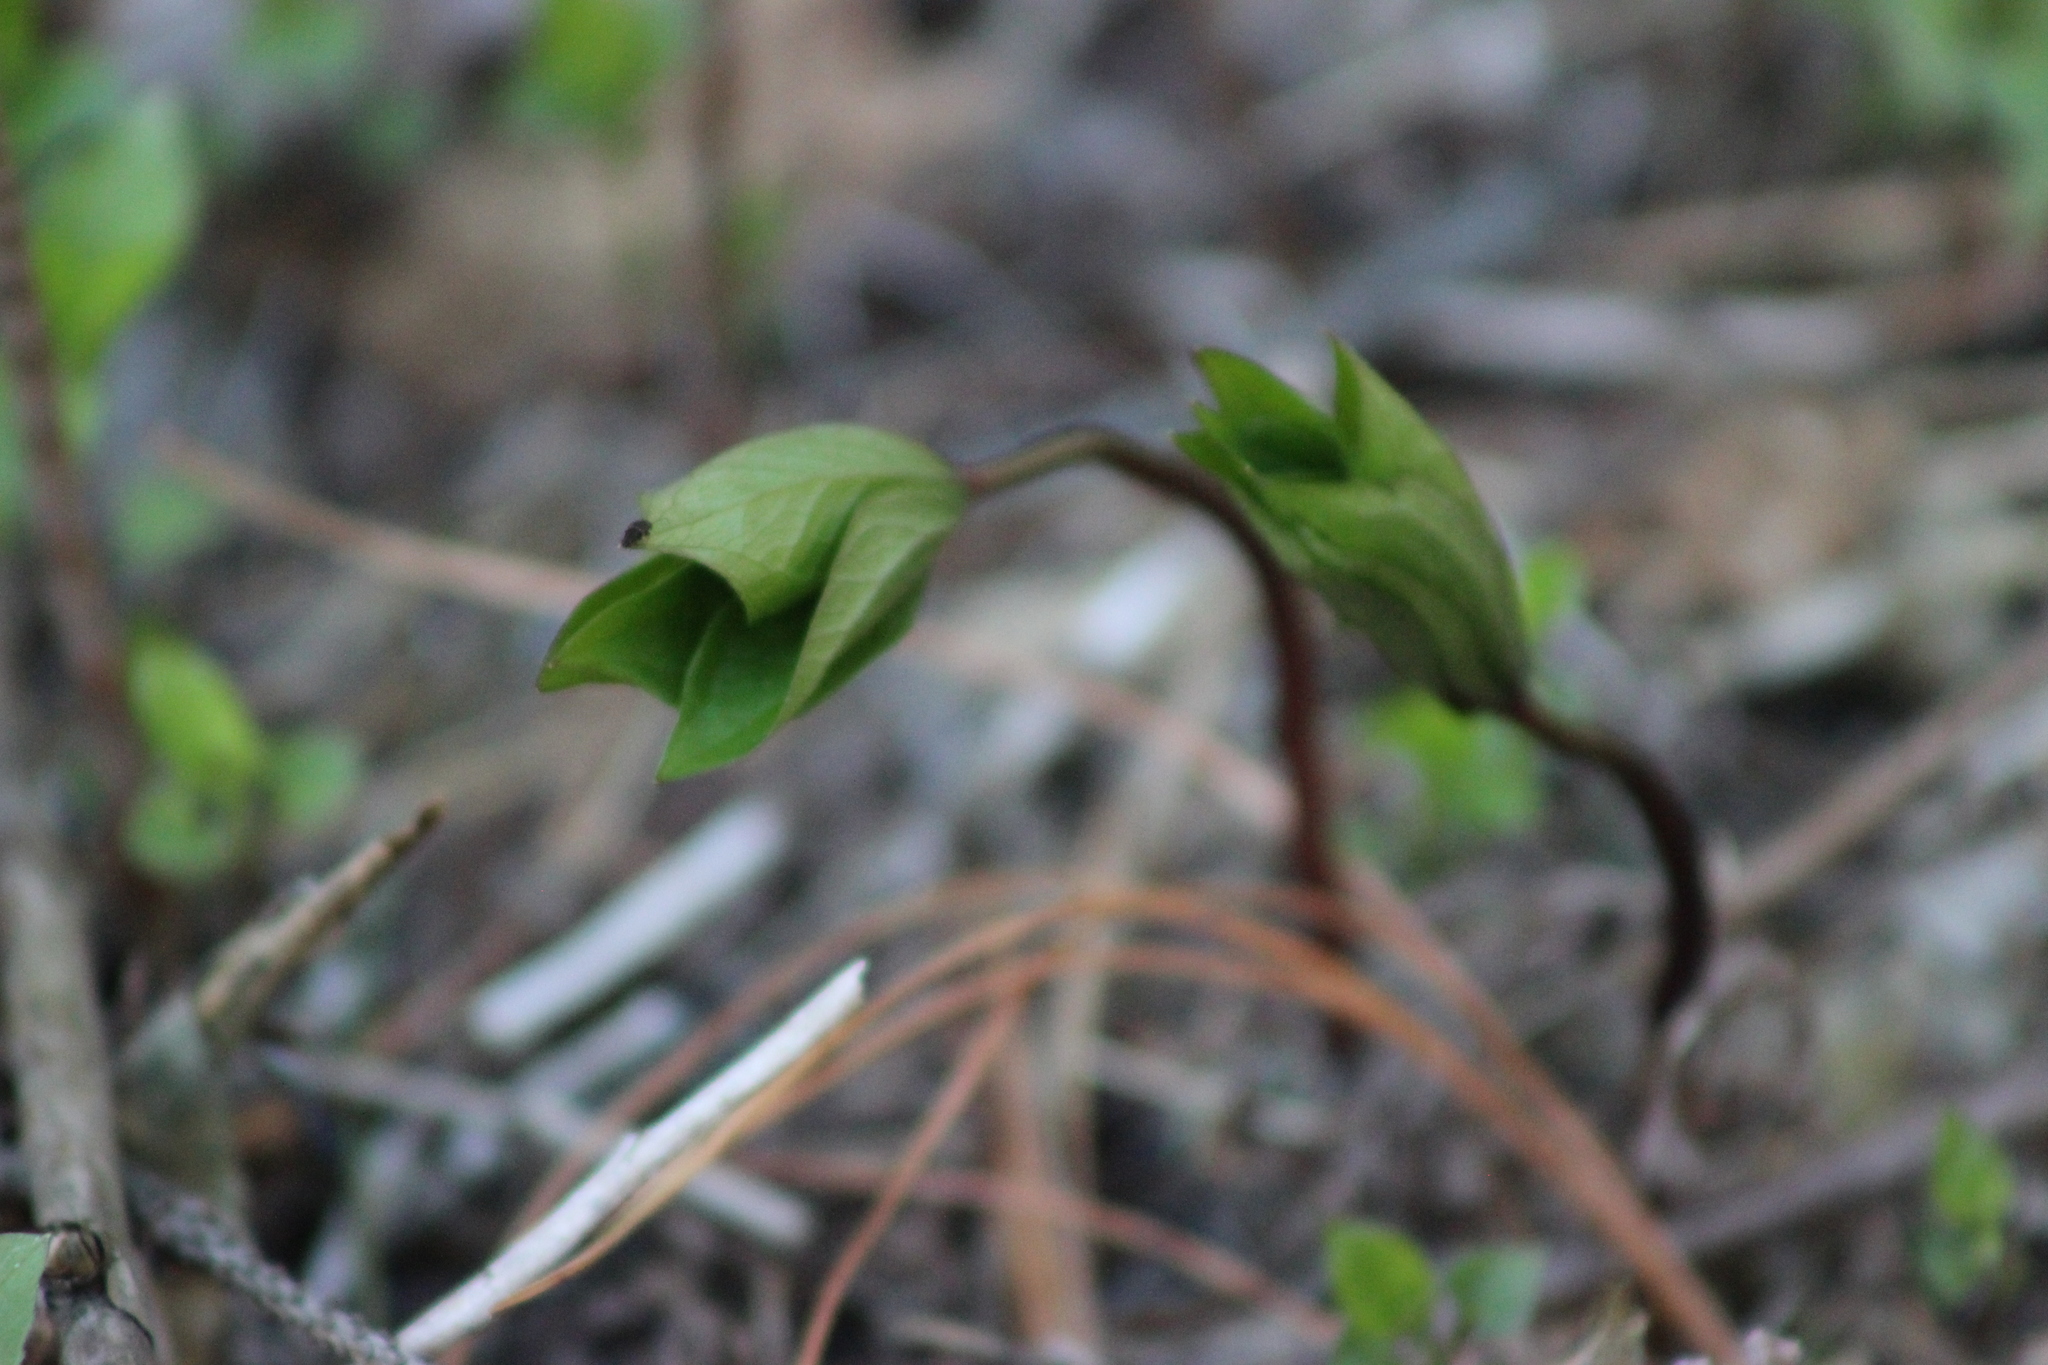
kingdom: Plantae
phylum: Tracheophyta
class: Liliopsida
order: Liliales
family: Melanthiaceae
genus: Paris
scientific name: Paris quadrifolia
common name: Herb-paris
